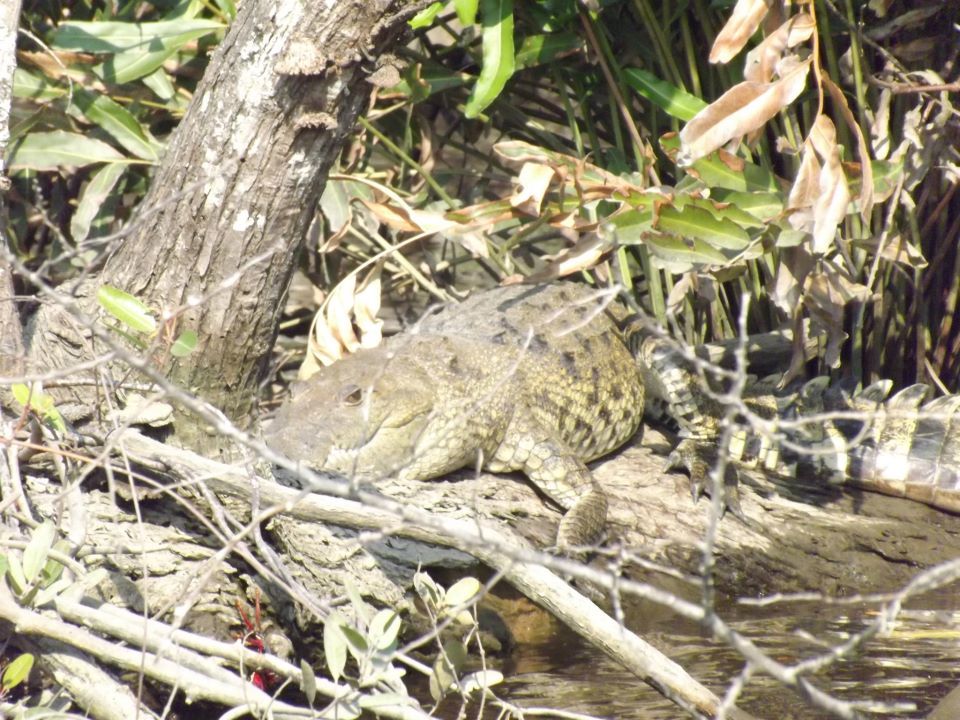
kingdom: Animalia
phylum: Chordata
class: Crocodylia
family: Crocodylidae
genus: Crocodylus
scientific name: Crocodylus moreletii
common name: Morelet's crocodile
